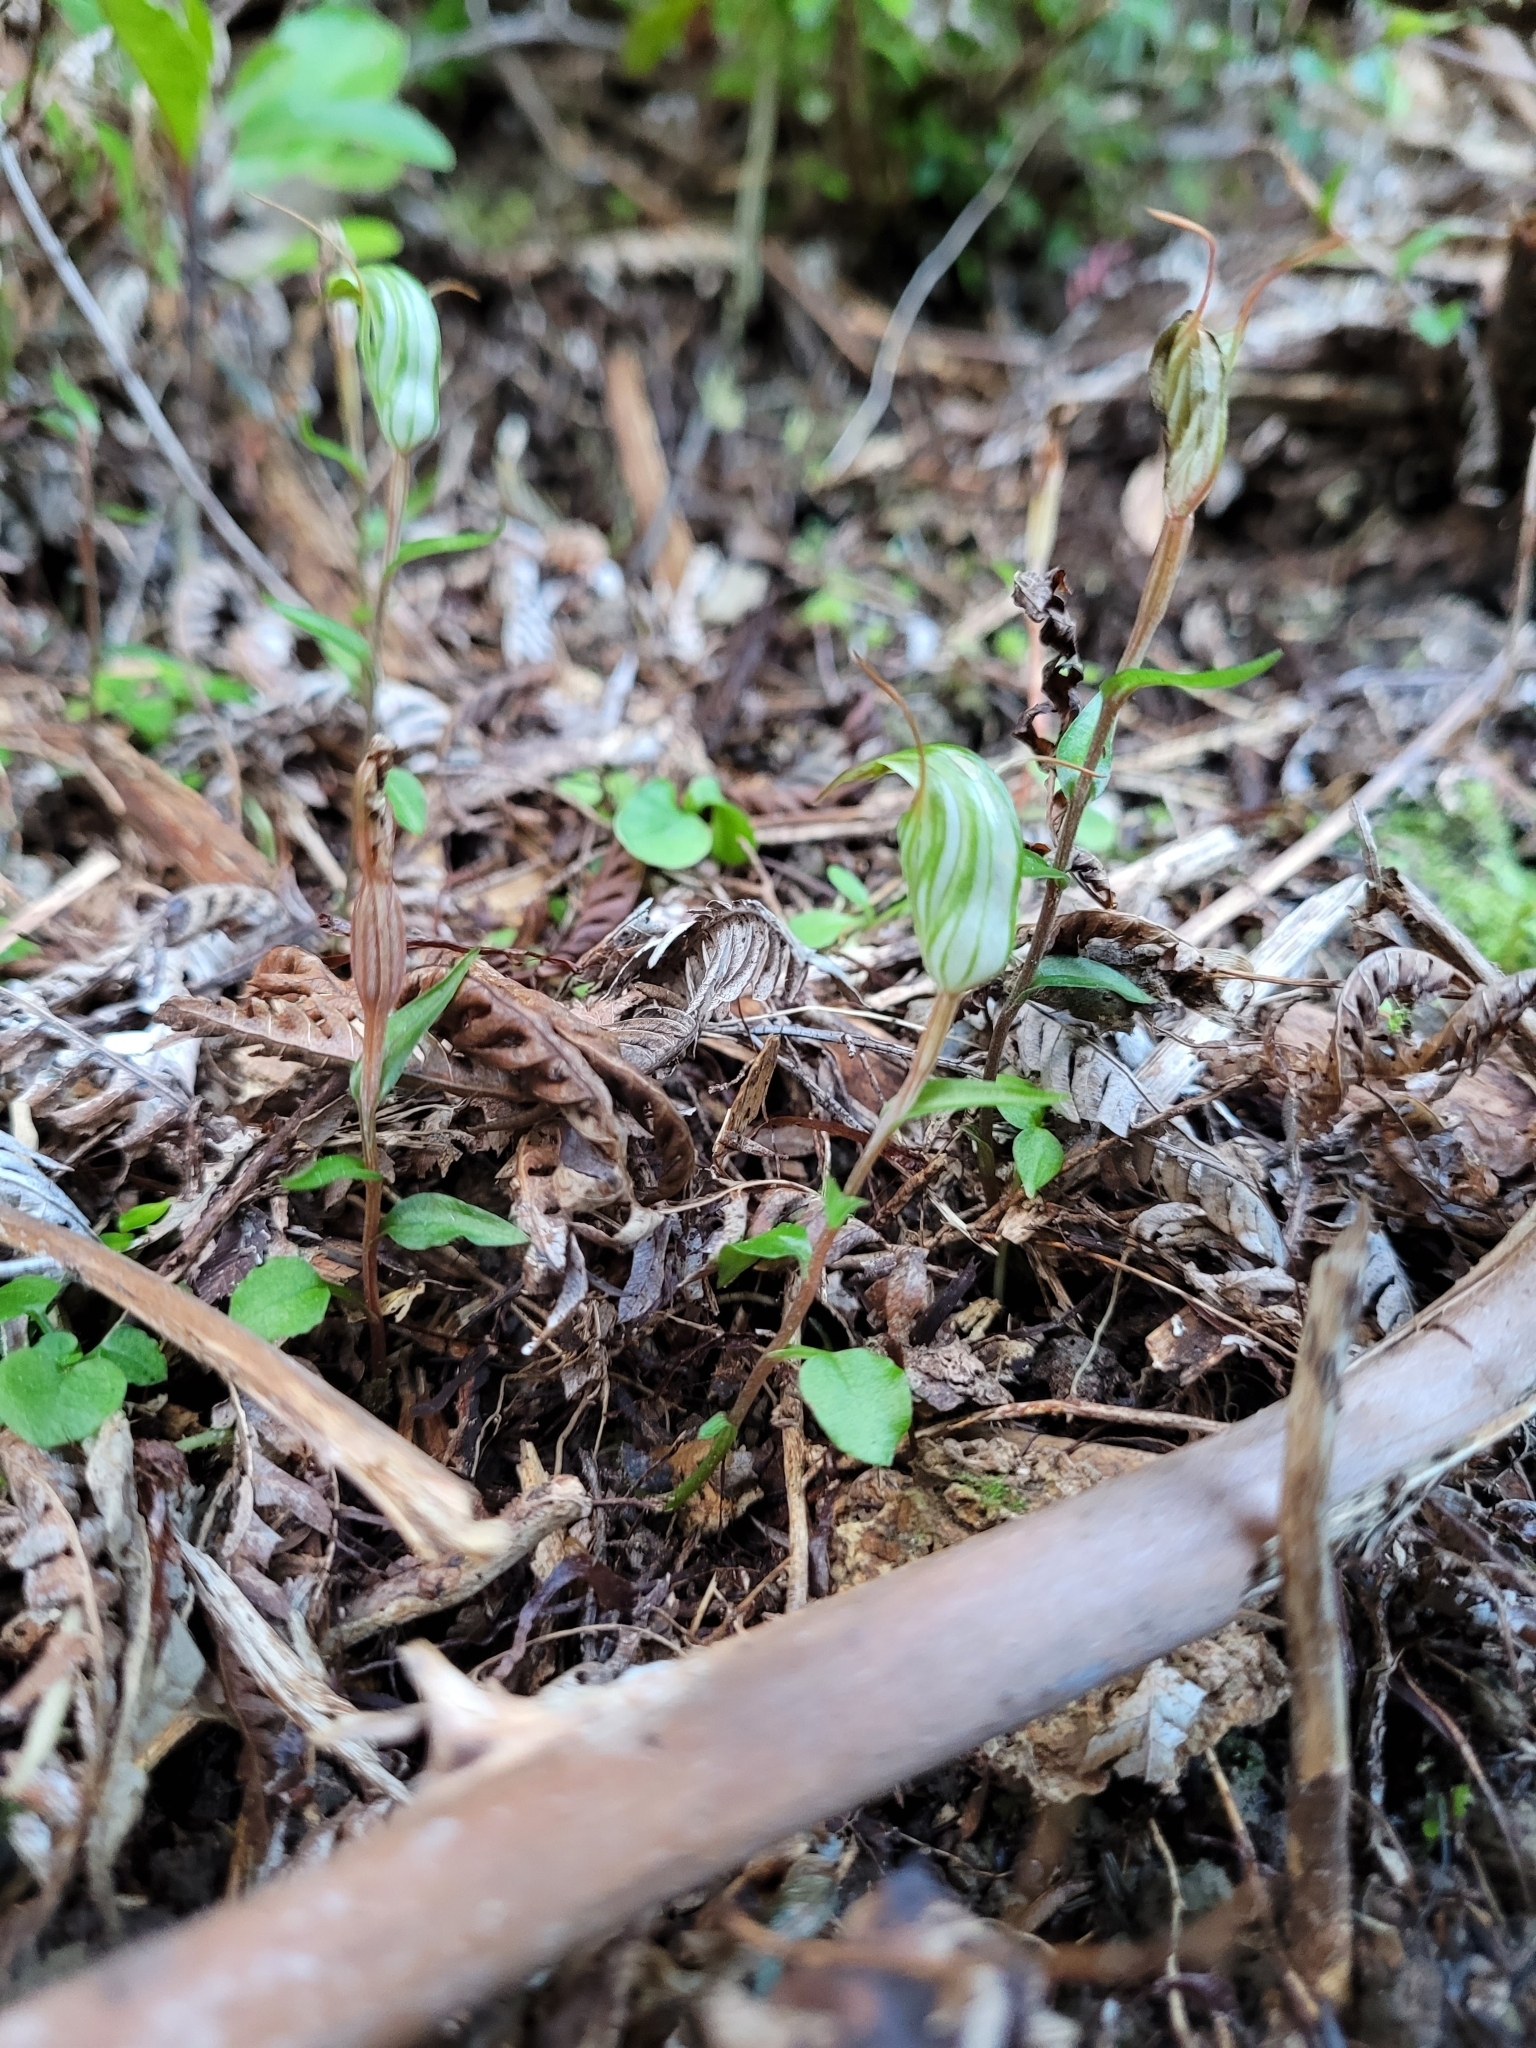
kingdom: Plantae
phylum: Tracheophyta
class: Liliopsida
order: Asparagales
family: Orchidaceae
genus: Pterostylis
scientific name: Pterostylis alobula
